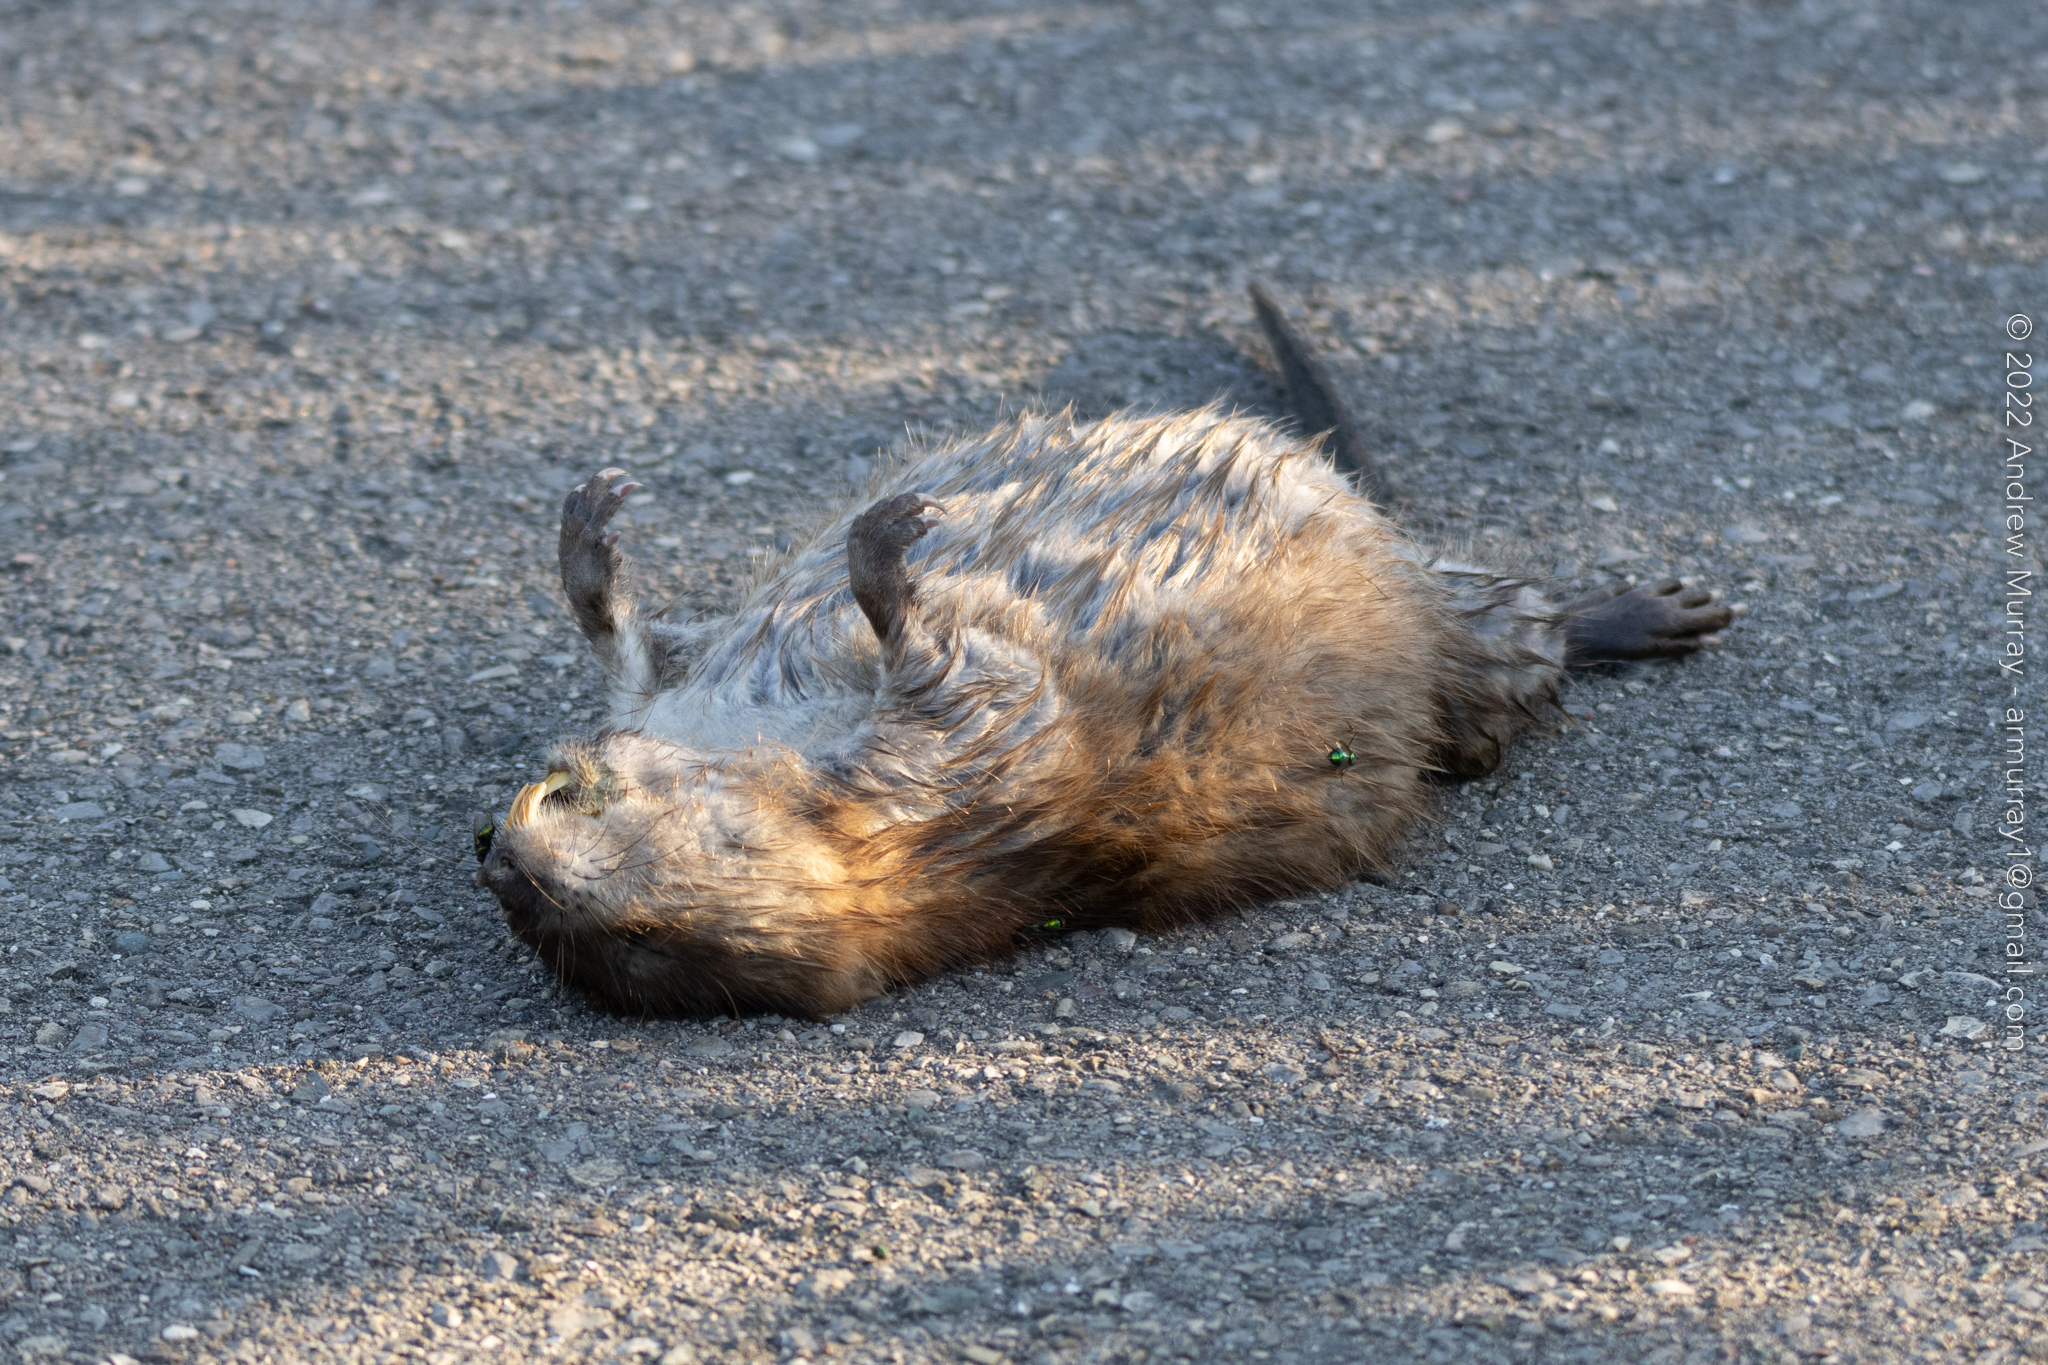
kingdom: Animalia
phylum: Chordata
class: Mammalia
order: Rodentia
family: Cricetidae
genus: Ondatra
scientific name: Ondatra zibethicus
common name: Muskrat
